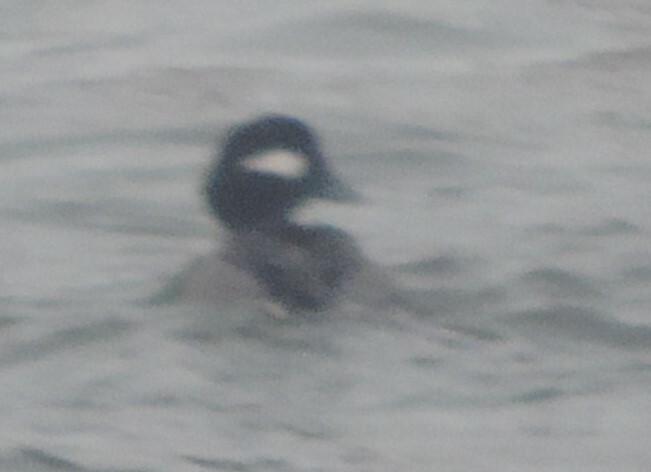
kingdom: Animalia
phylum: Chordata
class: Aves
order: Anseriformes
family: Anatidae
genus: Bucephala
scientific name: Bucephala albeola
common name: Bufflehead
